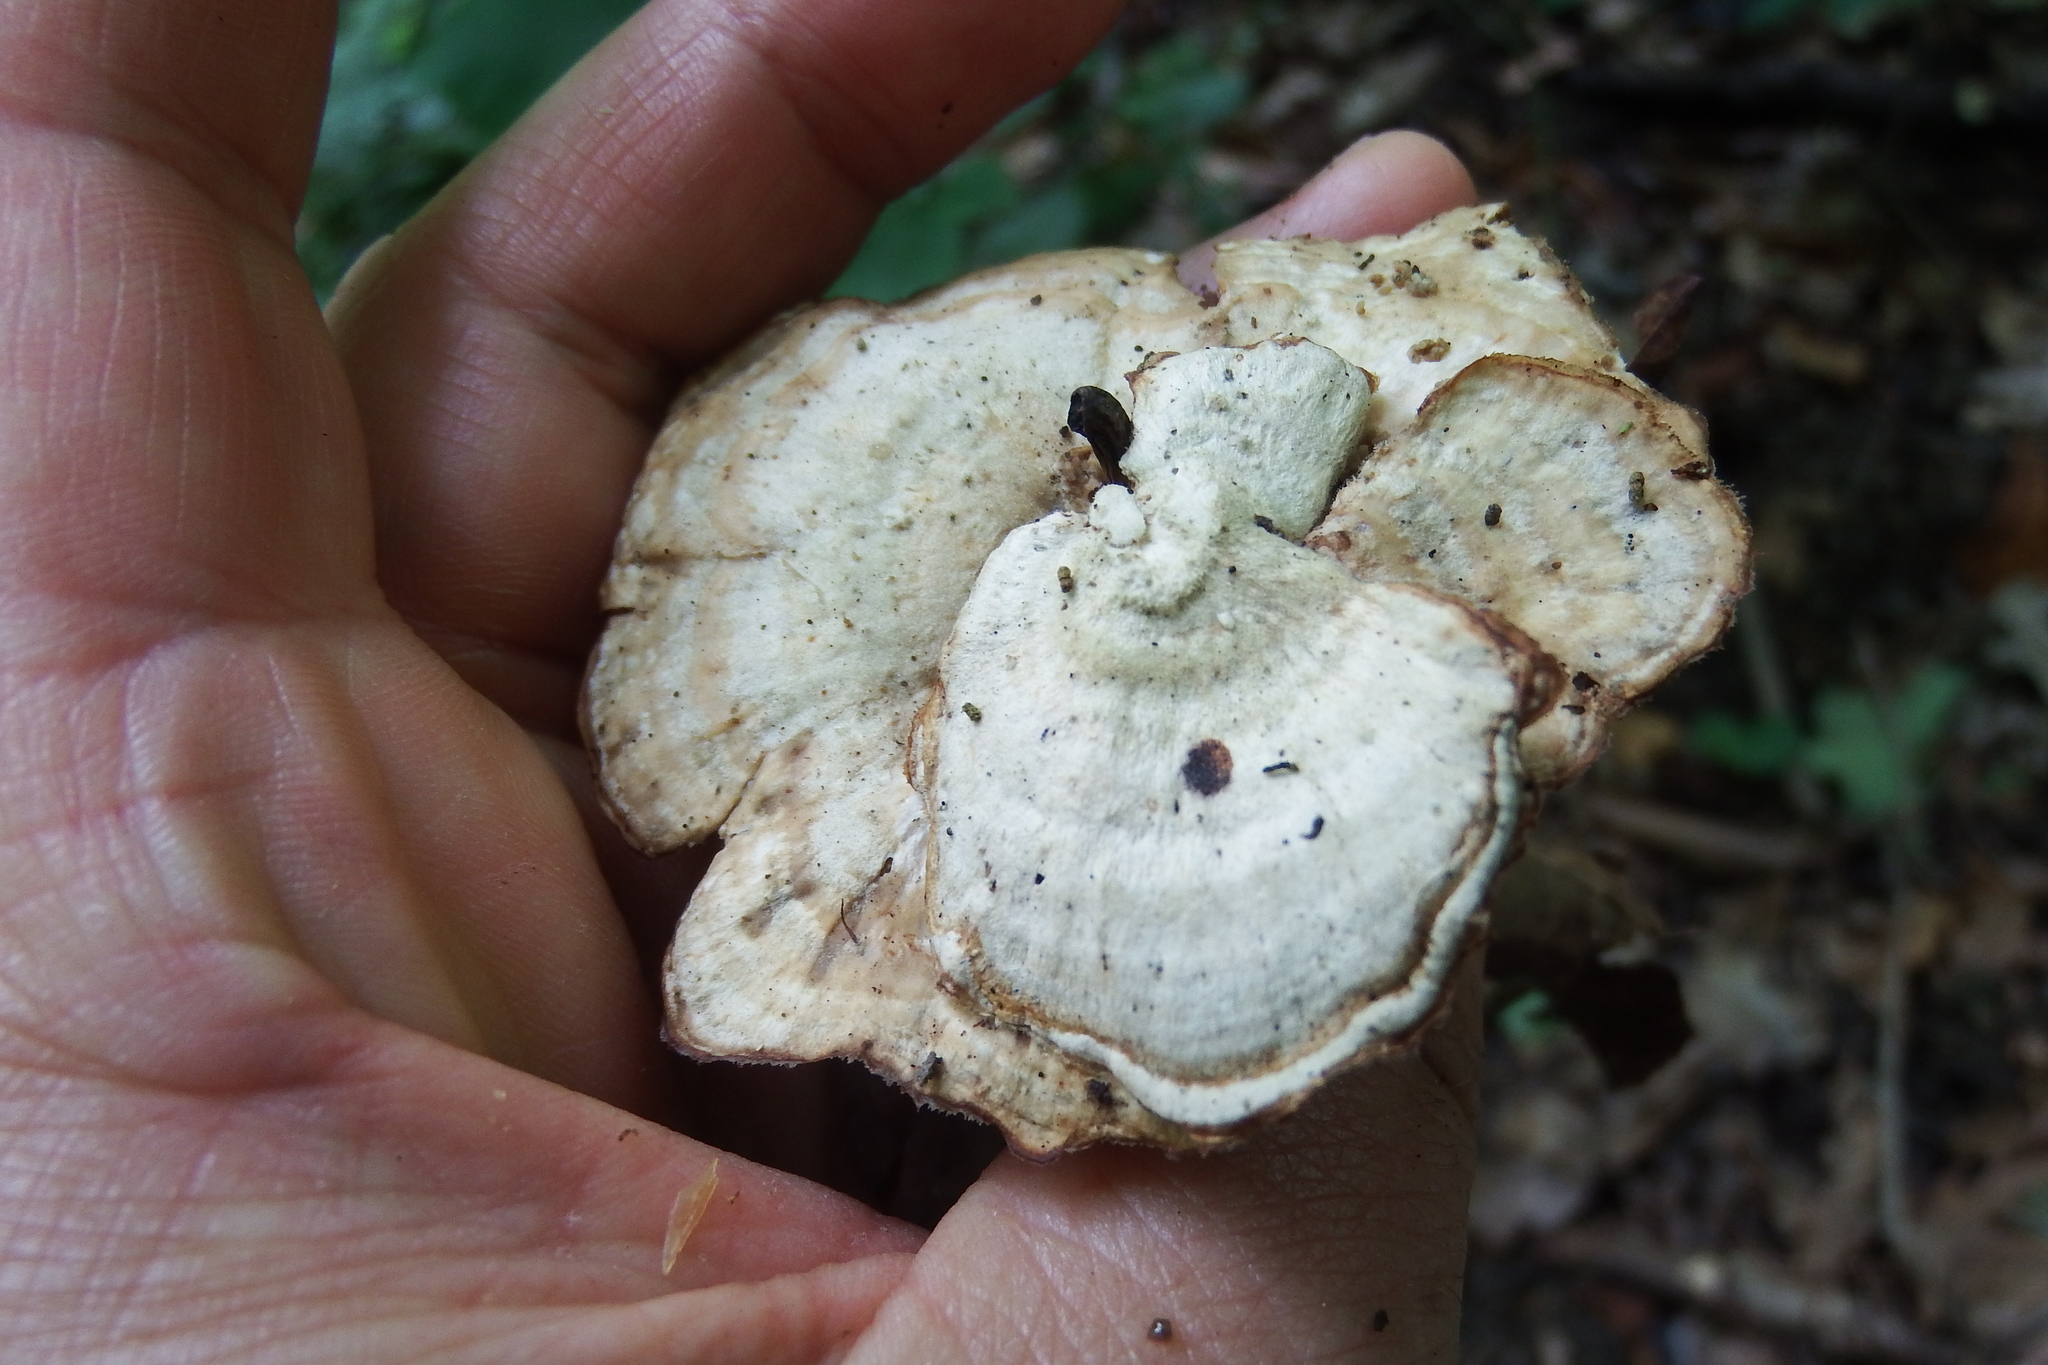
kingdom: Fungi
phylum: Basidiomycota
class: Agaricomycetes
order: Polyporales
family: Steccherinaceae
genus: Mycorrhaphium
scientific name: Mycorrhaphium adustum
